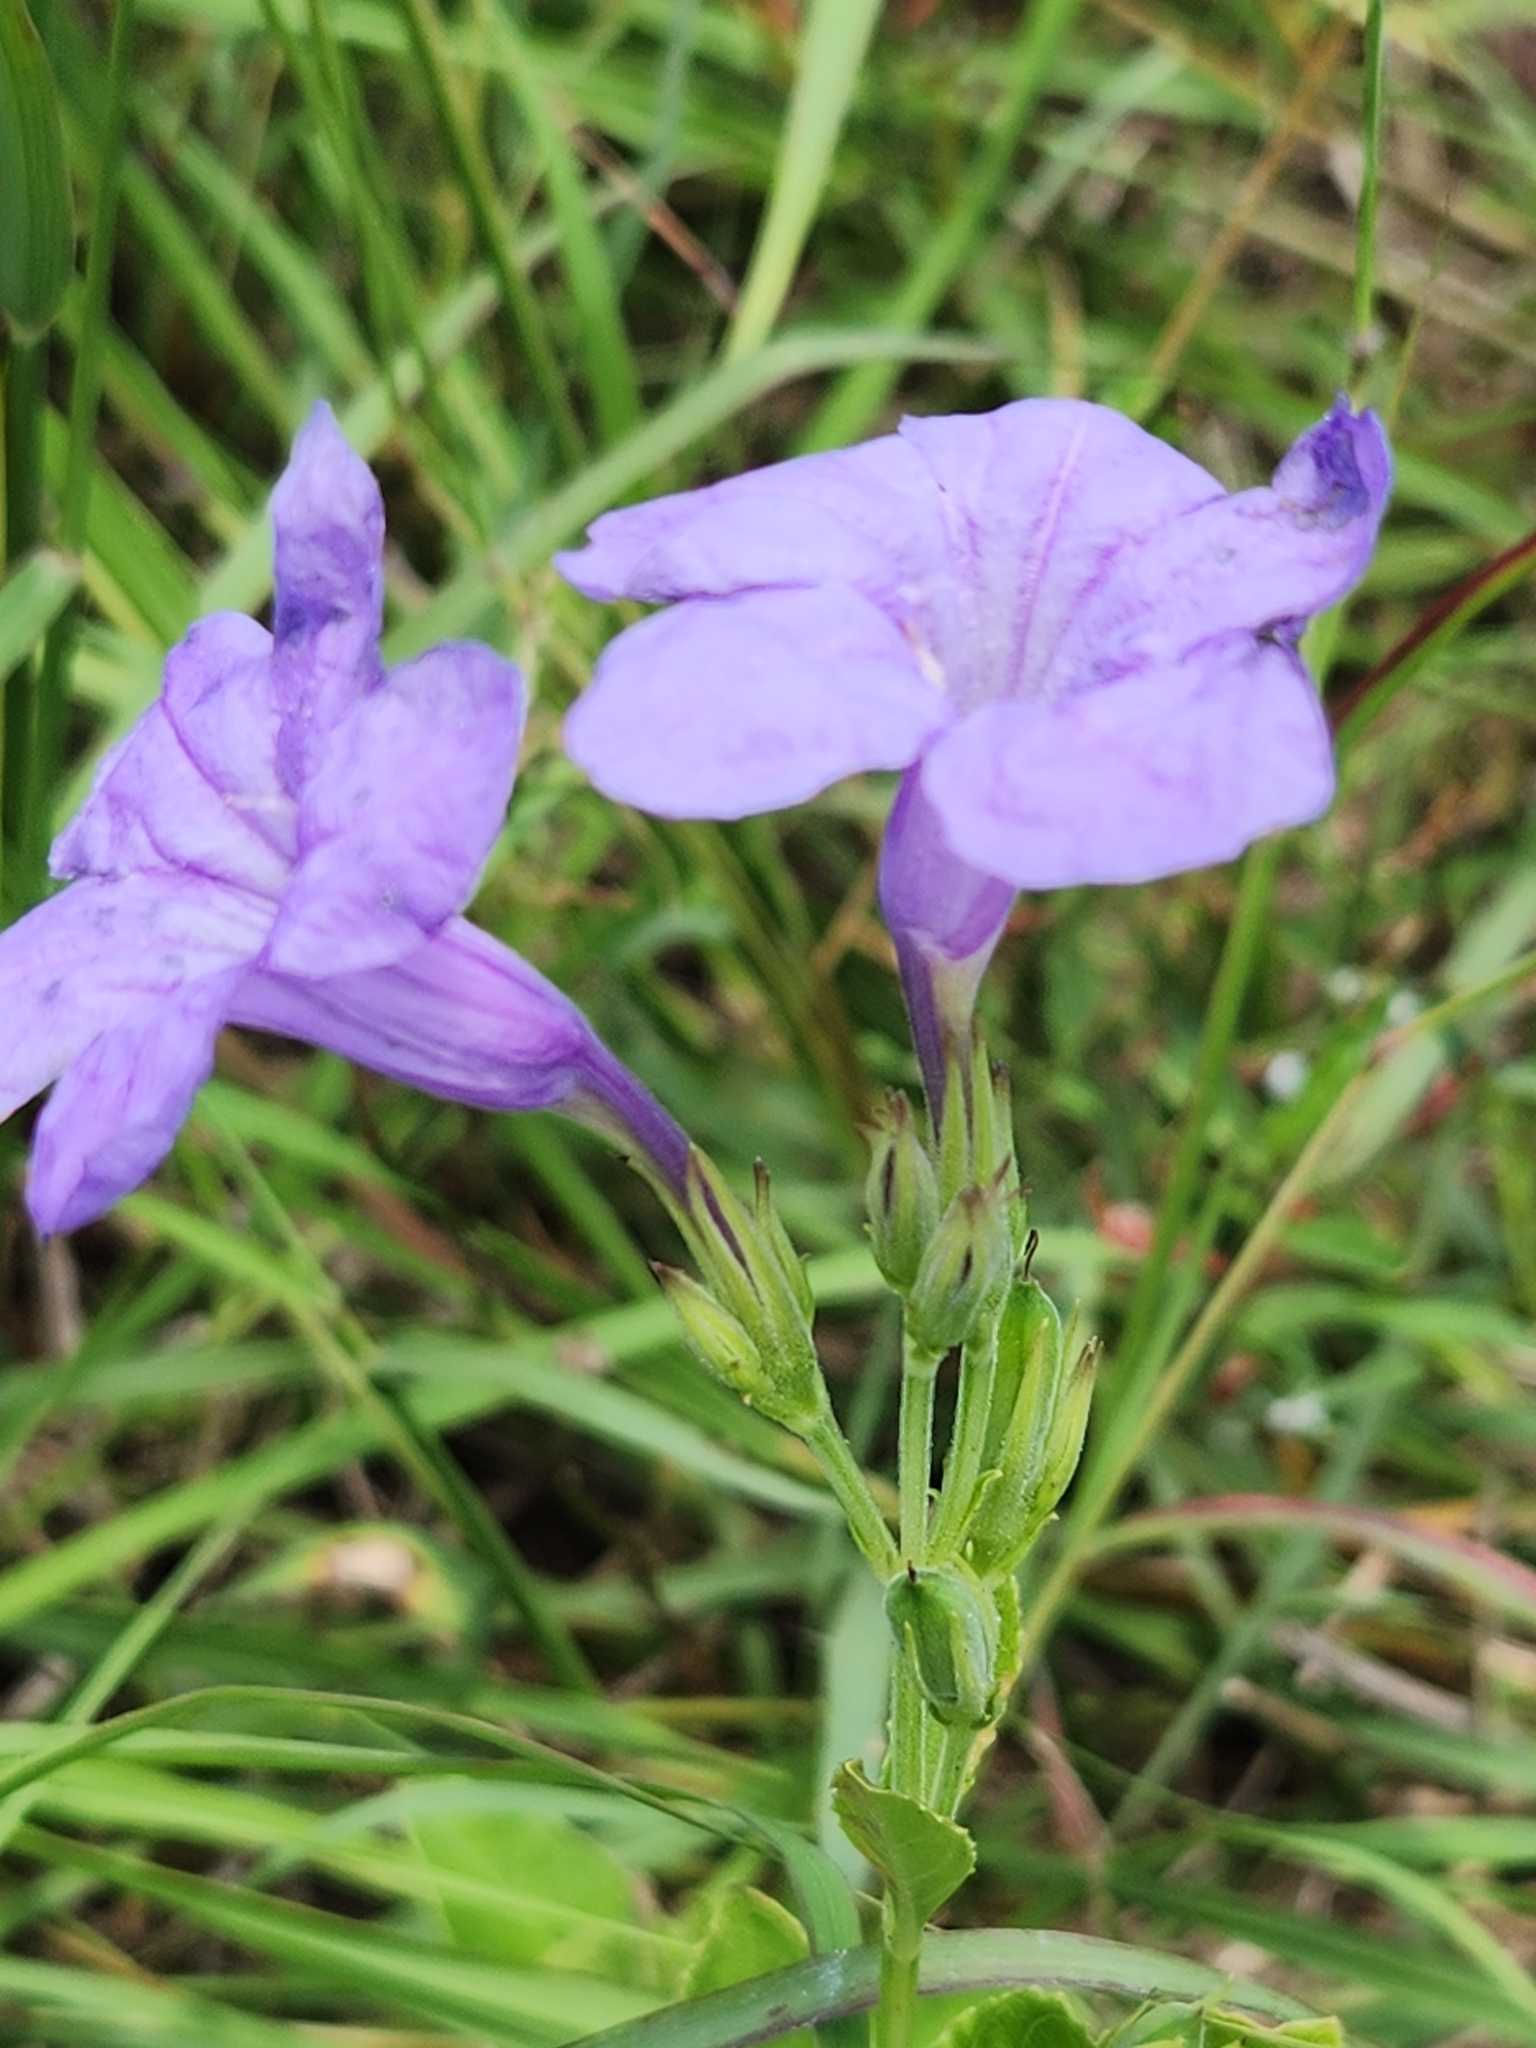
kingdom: Plantae
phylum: Tracheophyta
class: Magnoliopsida
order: Lamiales
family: Acanthaceae
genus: Ruellia
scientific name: Ruellia ciliatiflora
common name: Hairyflower wild petunia
